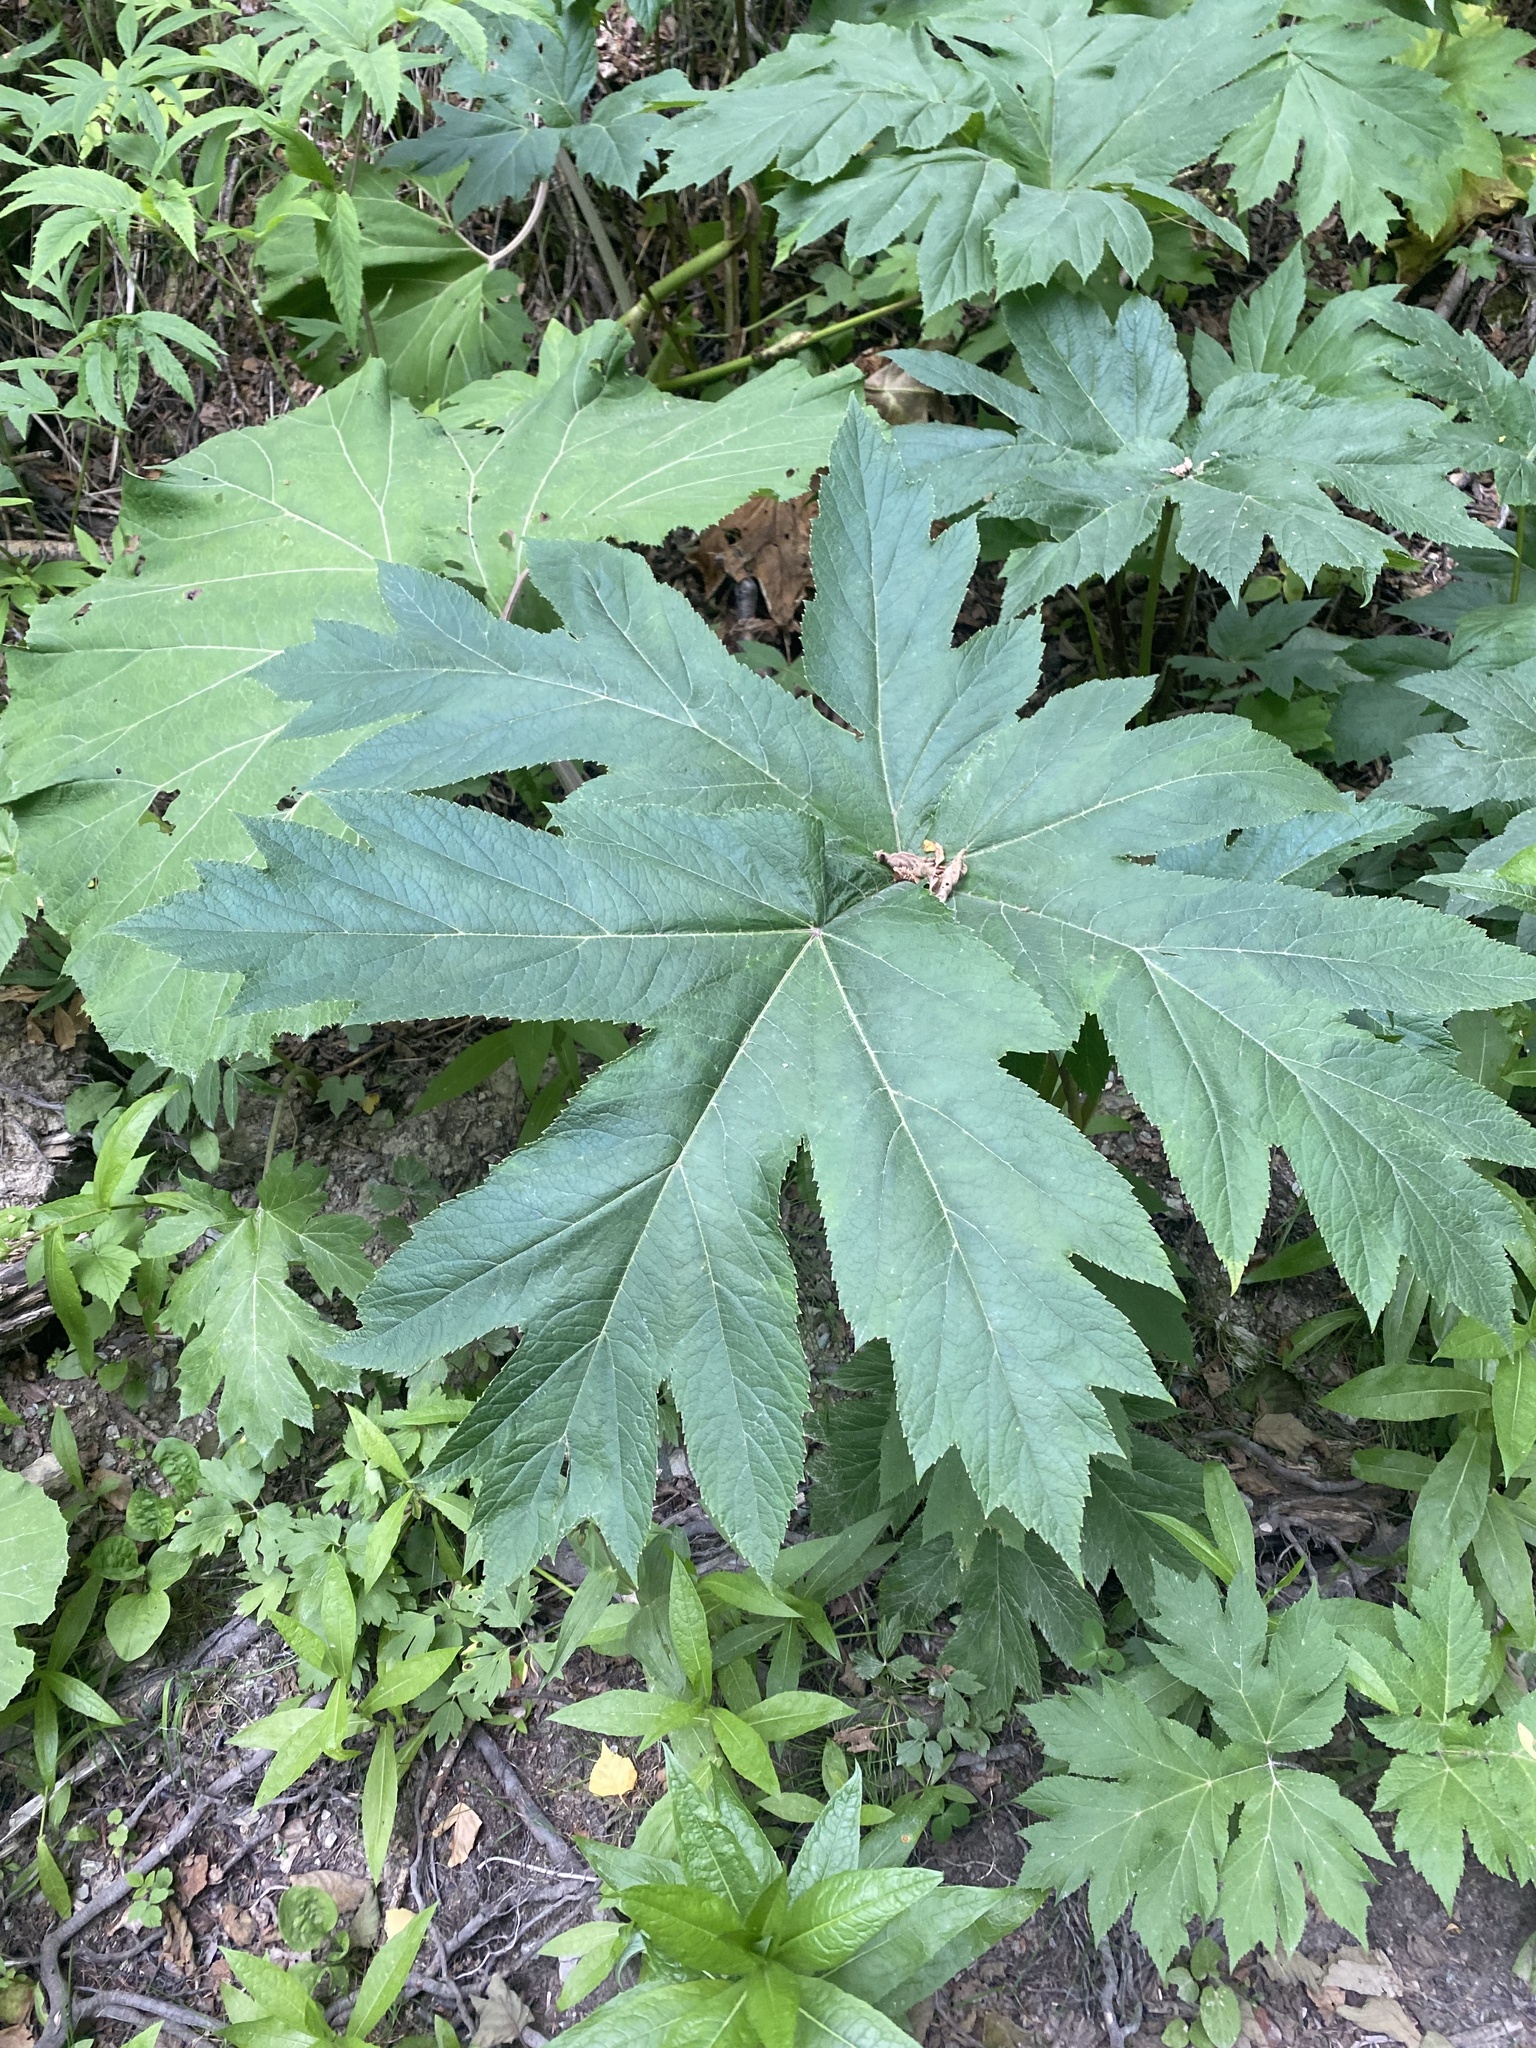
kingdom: Plantae
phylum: Tracheophyta
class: Magnoliopsida
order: Apiales
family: Apiaceae
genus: Heracleum
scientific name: Heracleum maximum
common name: American cow parsnip
